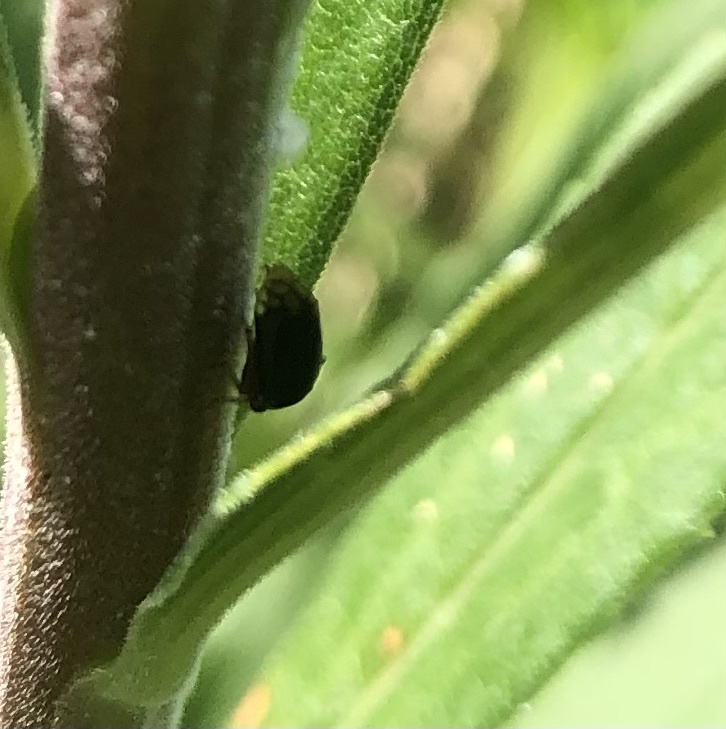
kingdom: Animalia
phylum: Arthropoda
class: Insecta
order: Hemiptera
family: Membracidae
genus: Acutalis
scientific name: Acutalis tartarea
